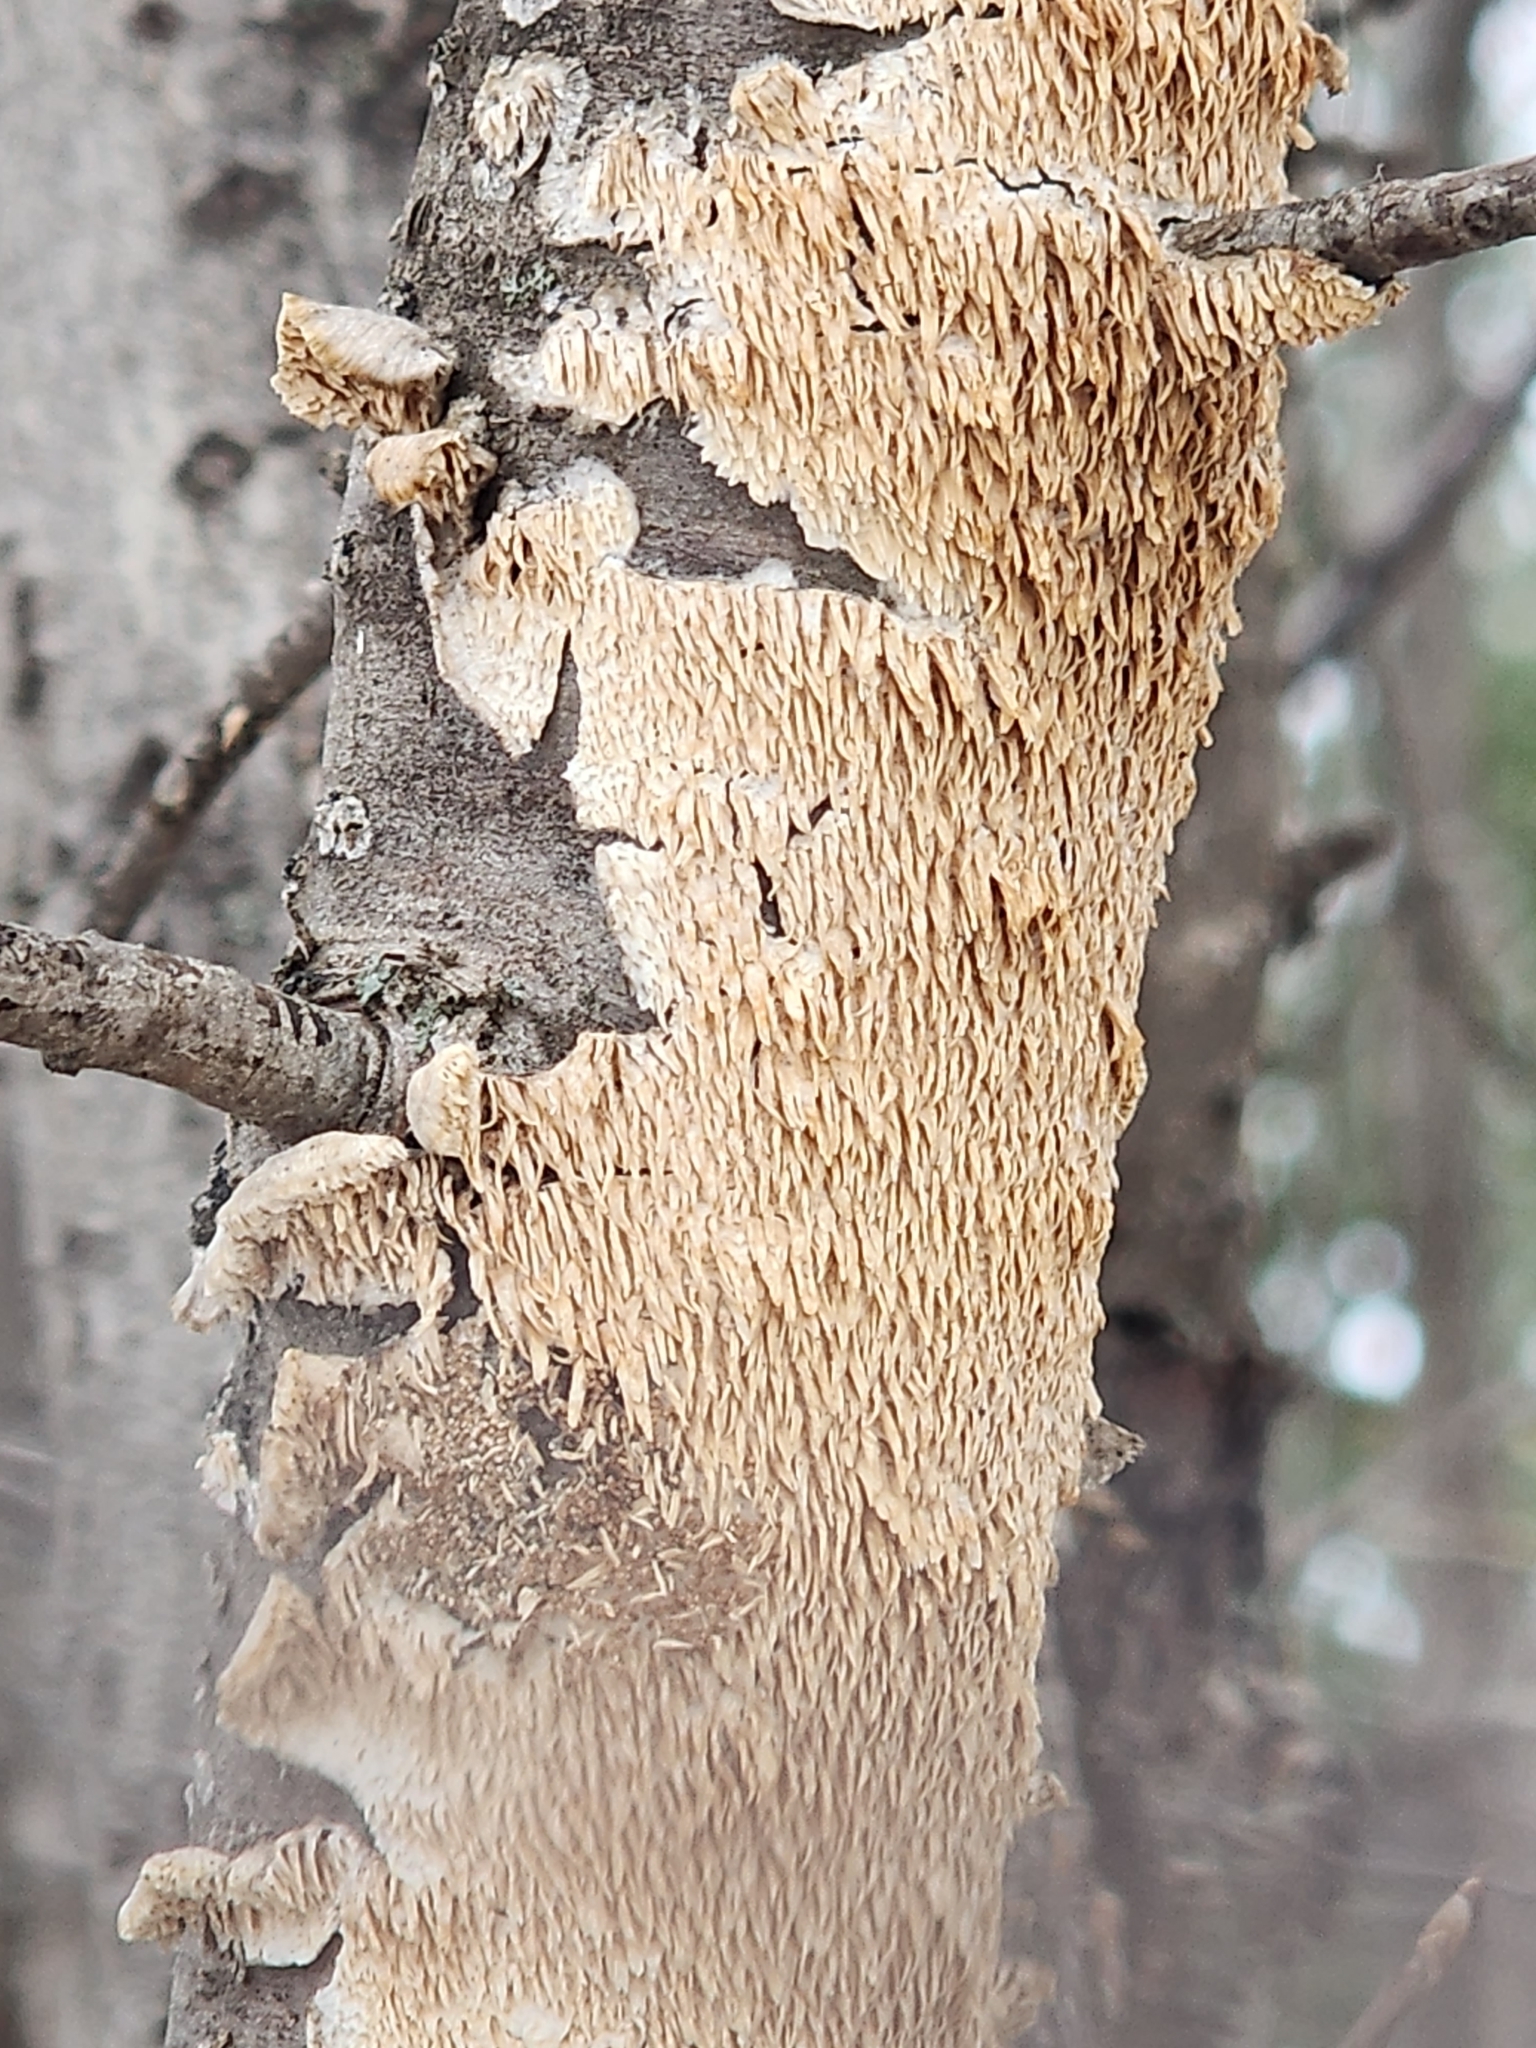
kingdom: Fungi
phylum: Basidiomycota
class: Agaricomycetes
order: Polyporales
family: Irpicaceae
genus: Irpex
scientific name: Irpex lacteus
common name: Milk-white toothed polypore
